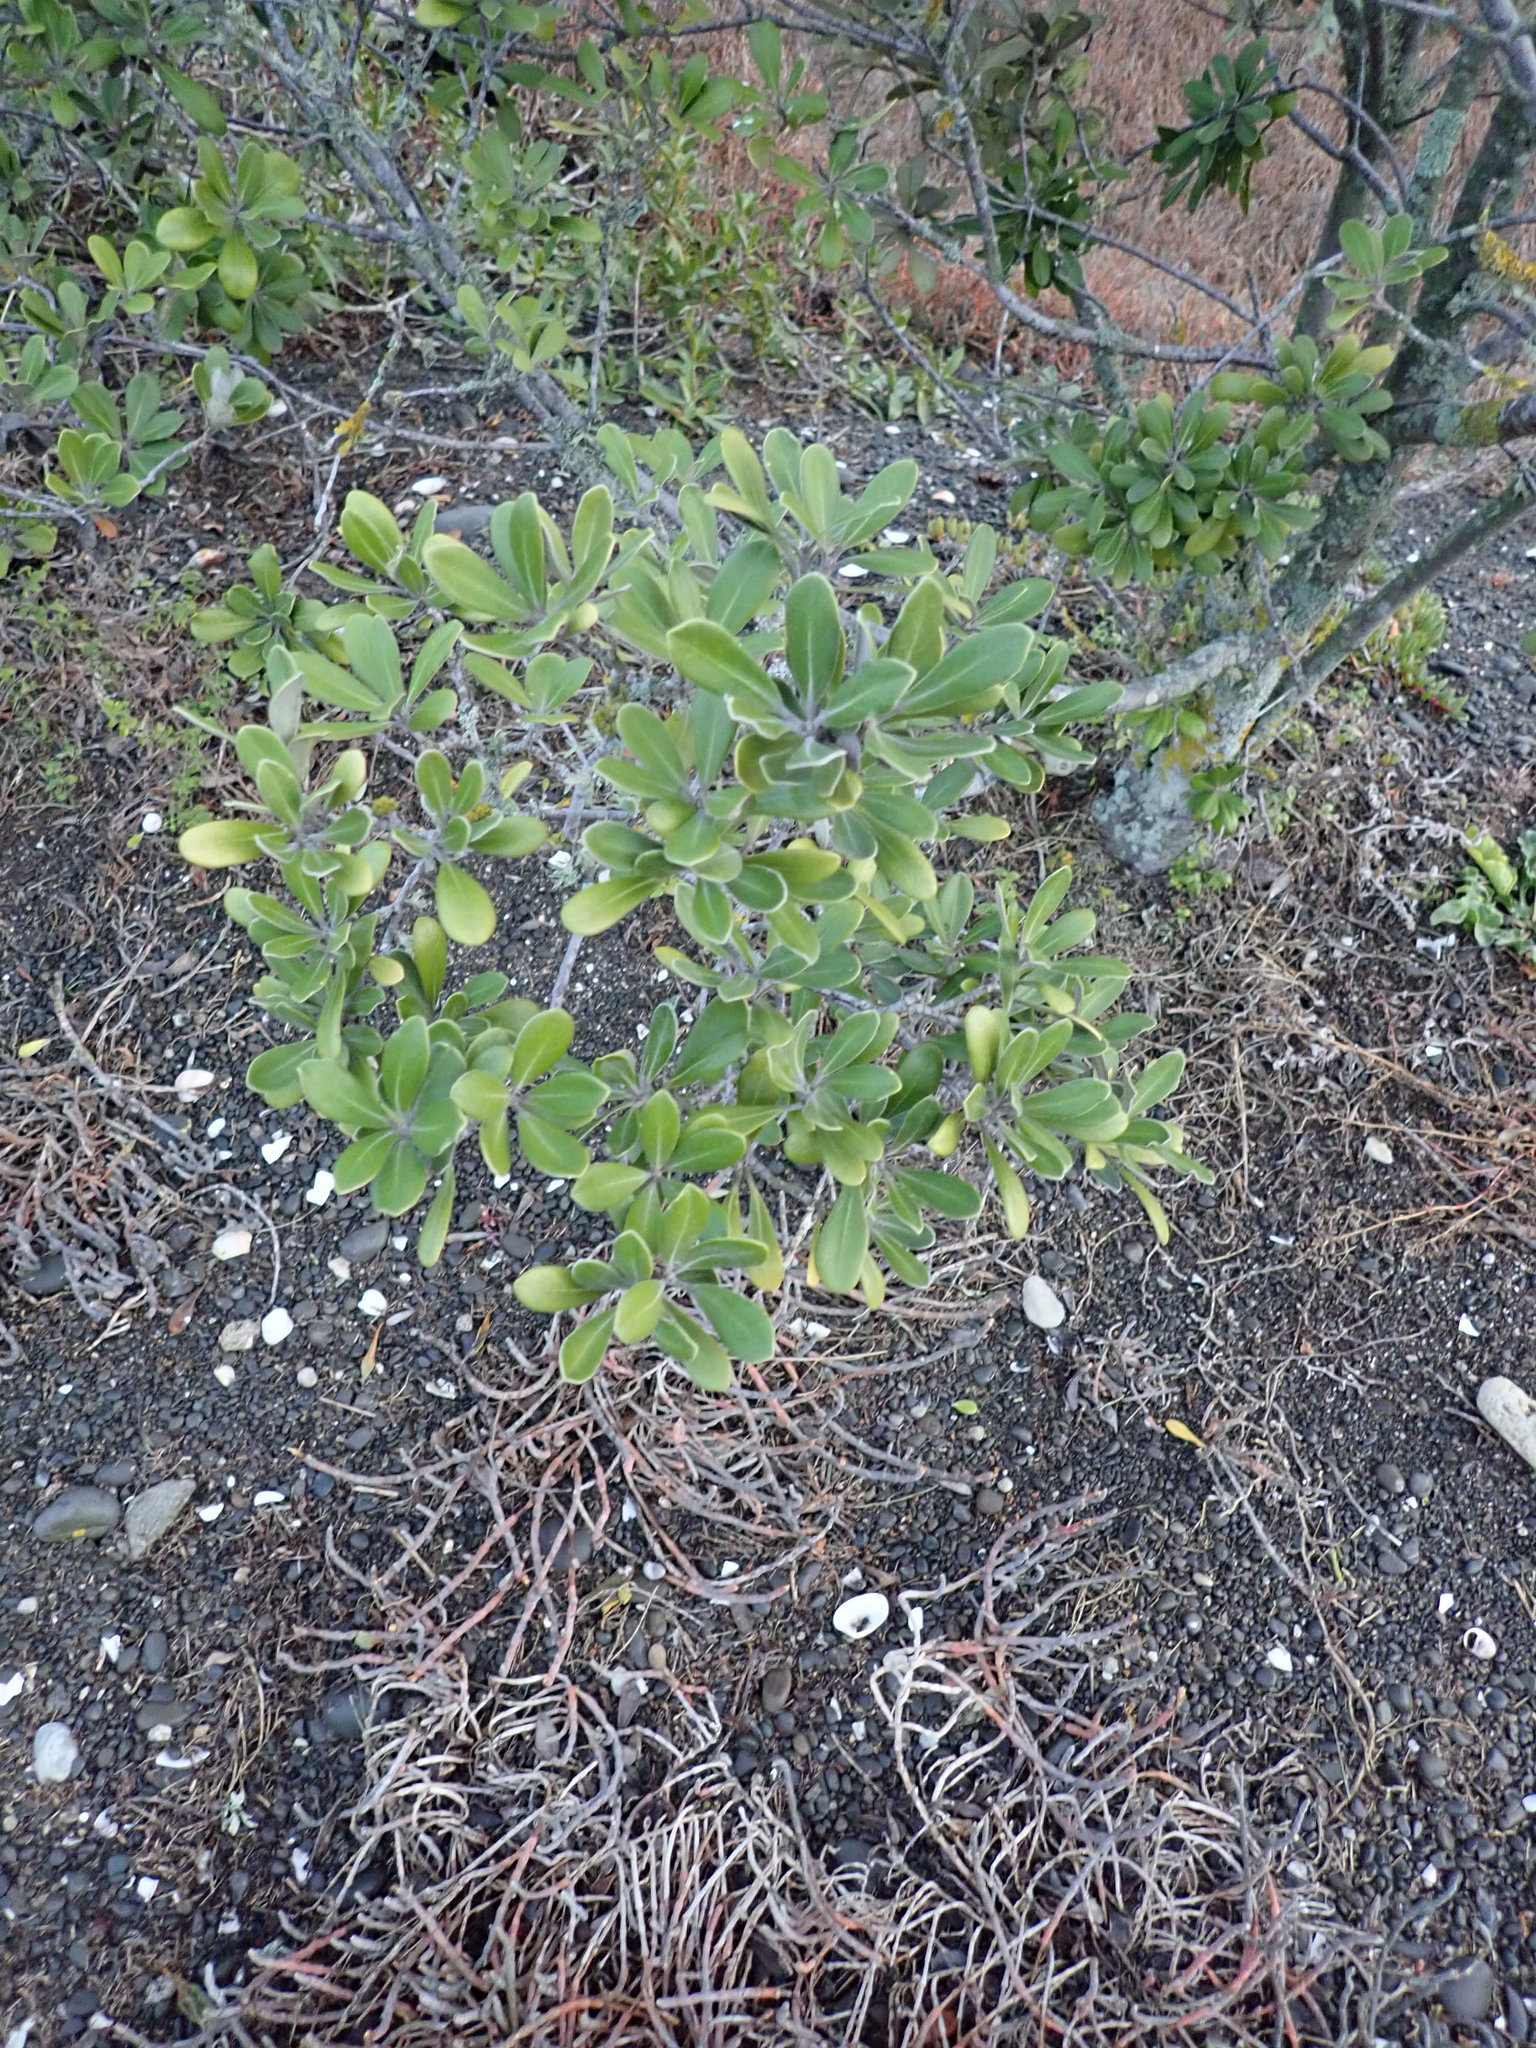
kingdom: Plantae
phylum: Tracheophyta
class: Magnoliopsida
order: Apiales
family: Pittosporaceae
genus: Pittosporum
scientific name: Pittosporum crassifolium
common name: Karo
